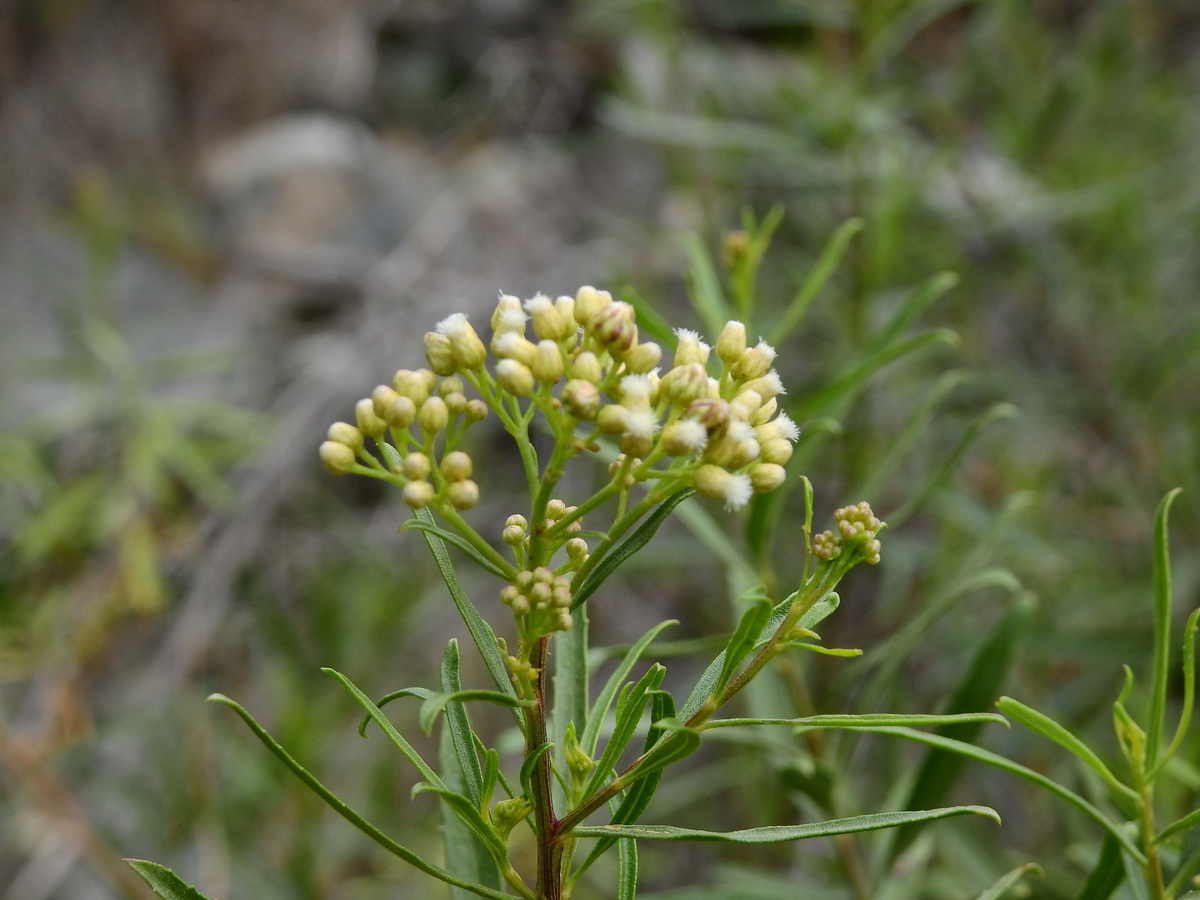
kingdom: Plantae
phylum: Tracheophyta
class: Magnoliopsida
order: Asterales
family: Asteraceae
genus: Baccharis
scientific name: Baccharis salicifolia
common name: Sticky baccharis
